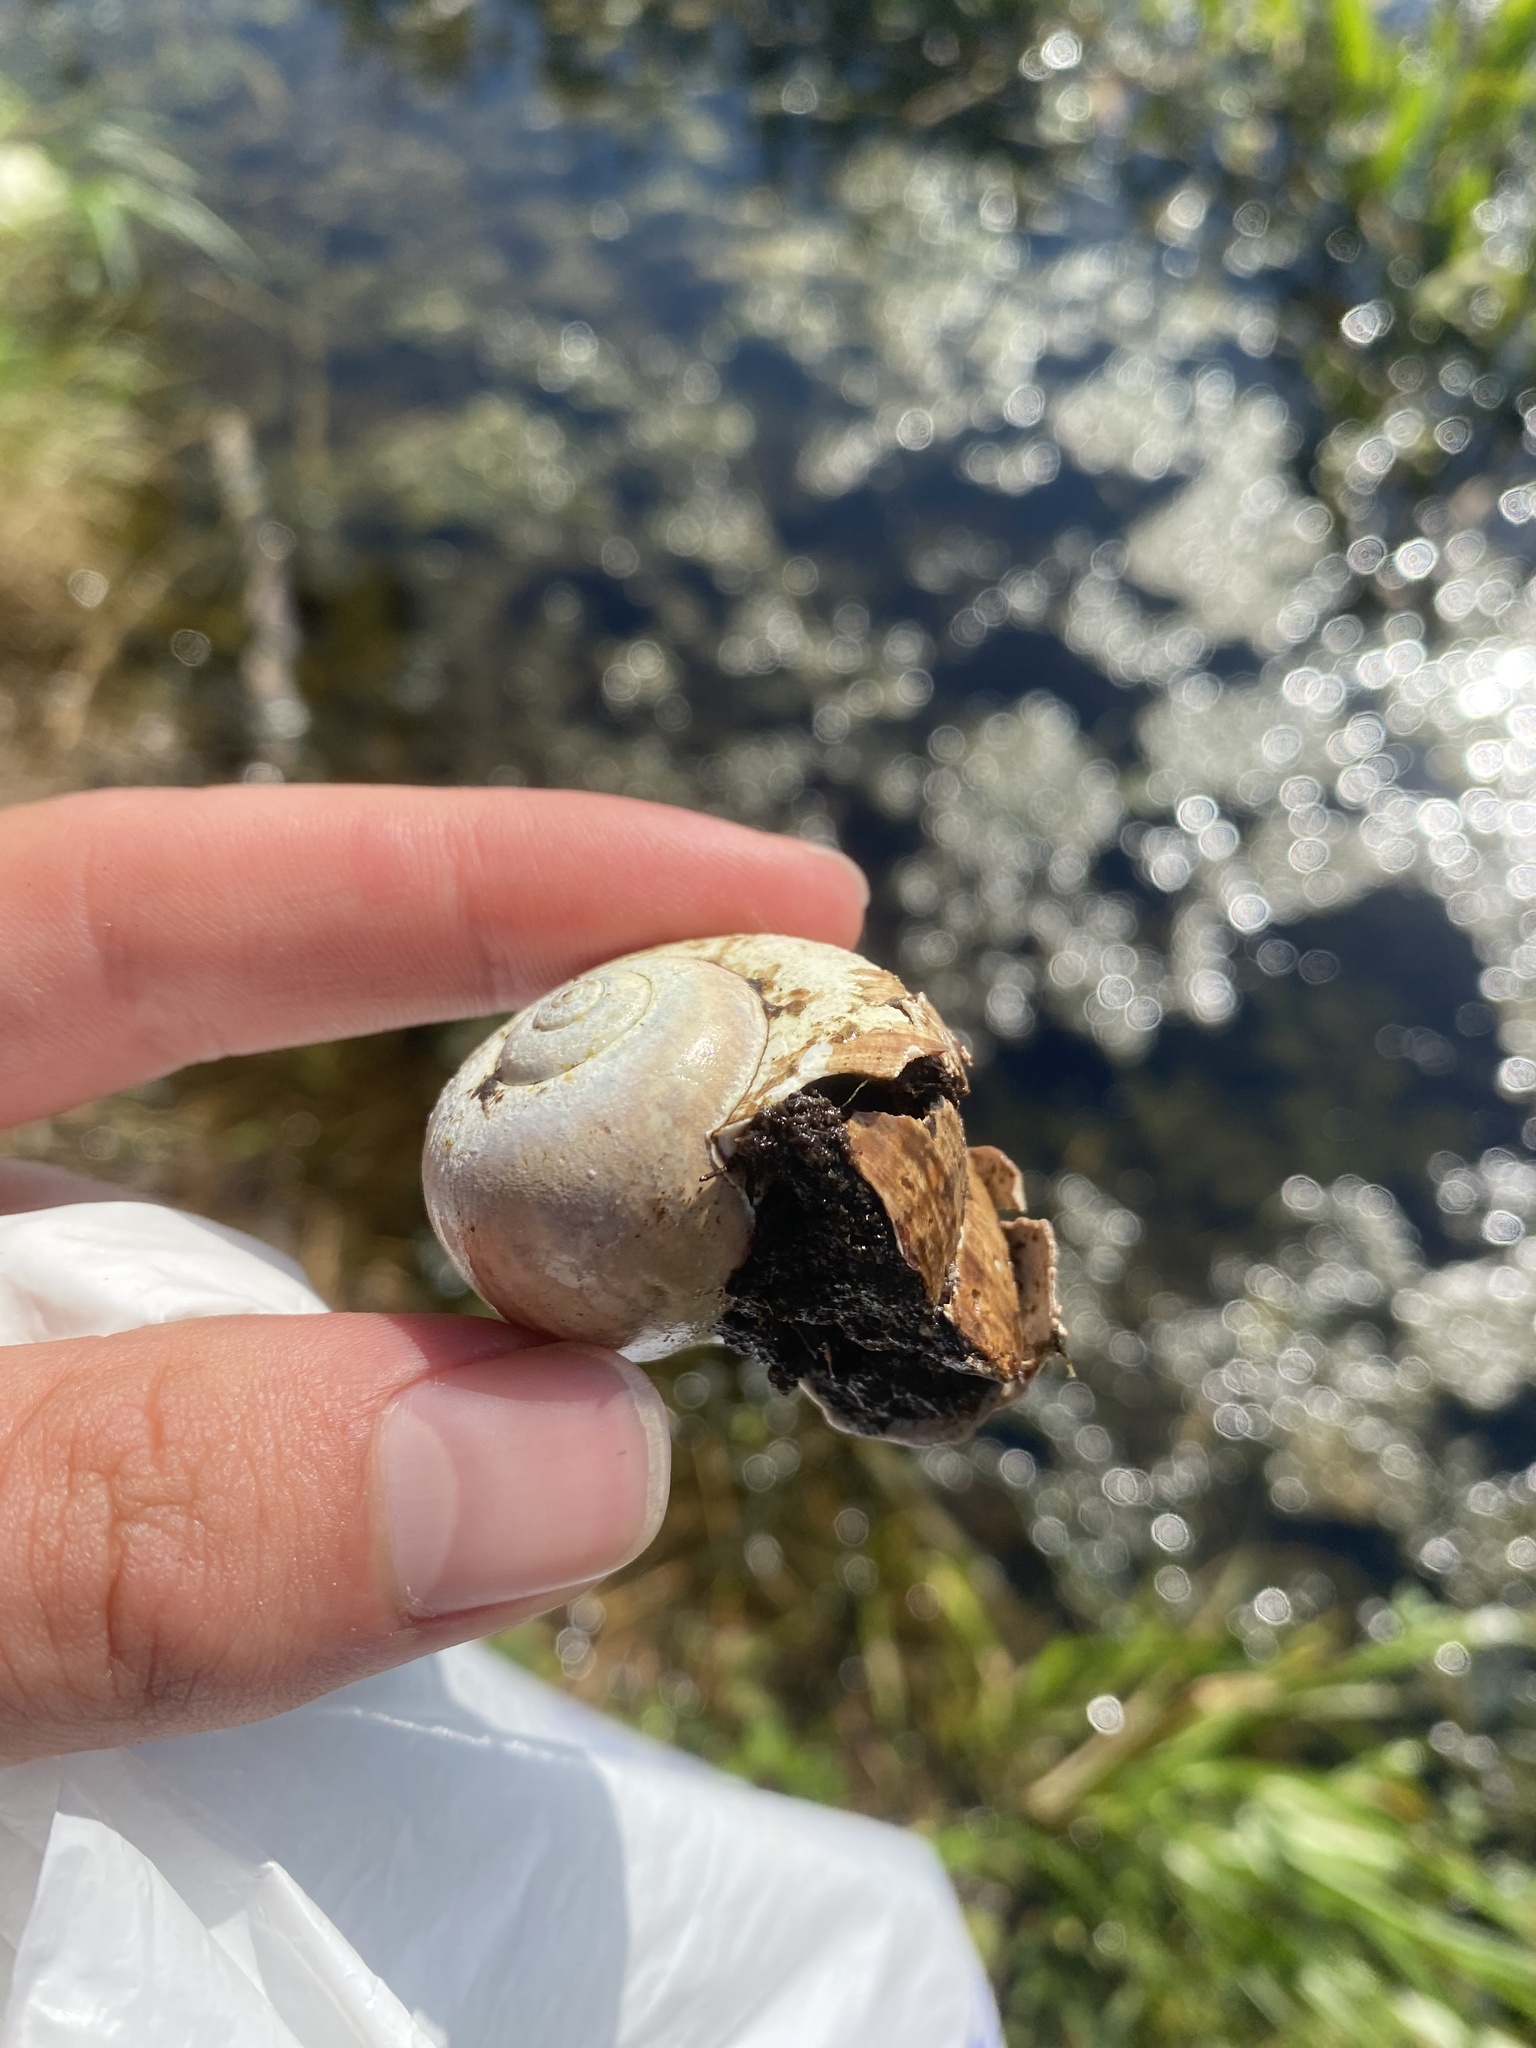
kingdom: Animalia
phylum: Mollusca
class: Gastropoda
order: Architaenioglossa
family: Ampullariidae
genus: Pomacea
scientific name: Pomacea paludosa
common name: Florida applesnail
